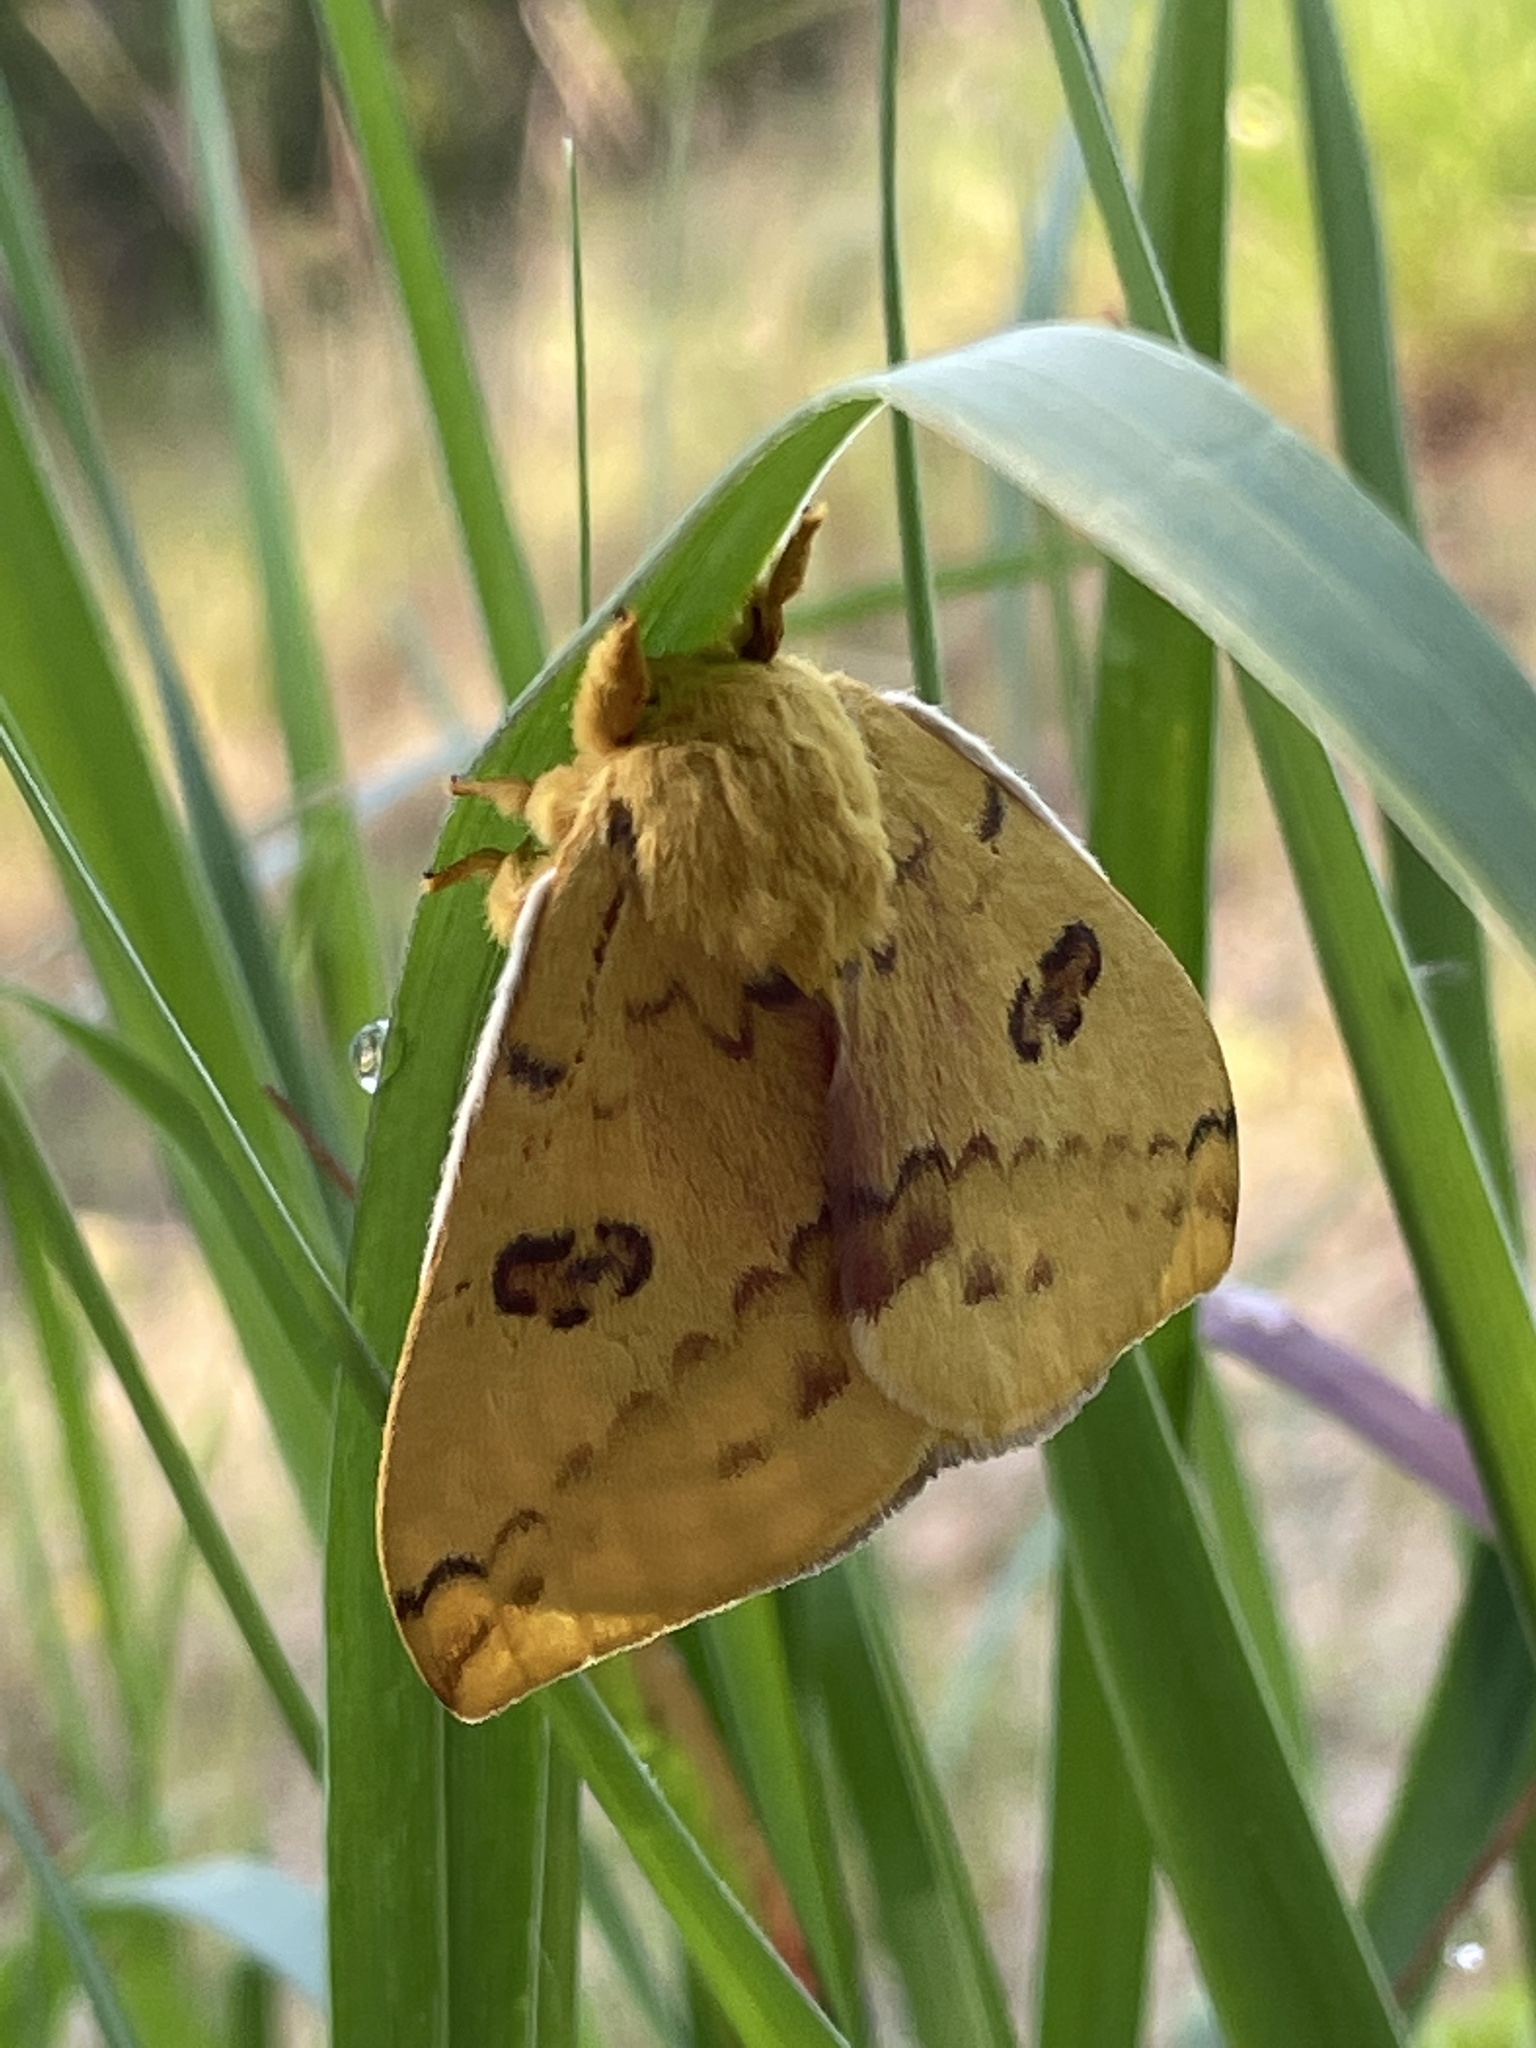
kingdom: Animalia
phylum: Arthropoda
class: Insecta
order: Lepidoptera
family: Saturniidae
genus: Automeris
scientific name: Automeris io
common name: Io moth
